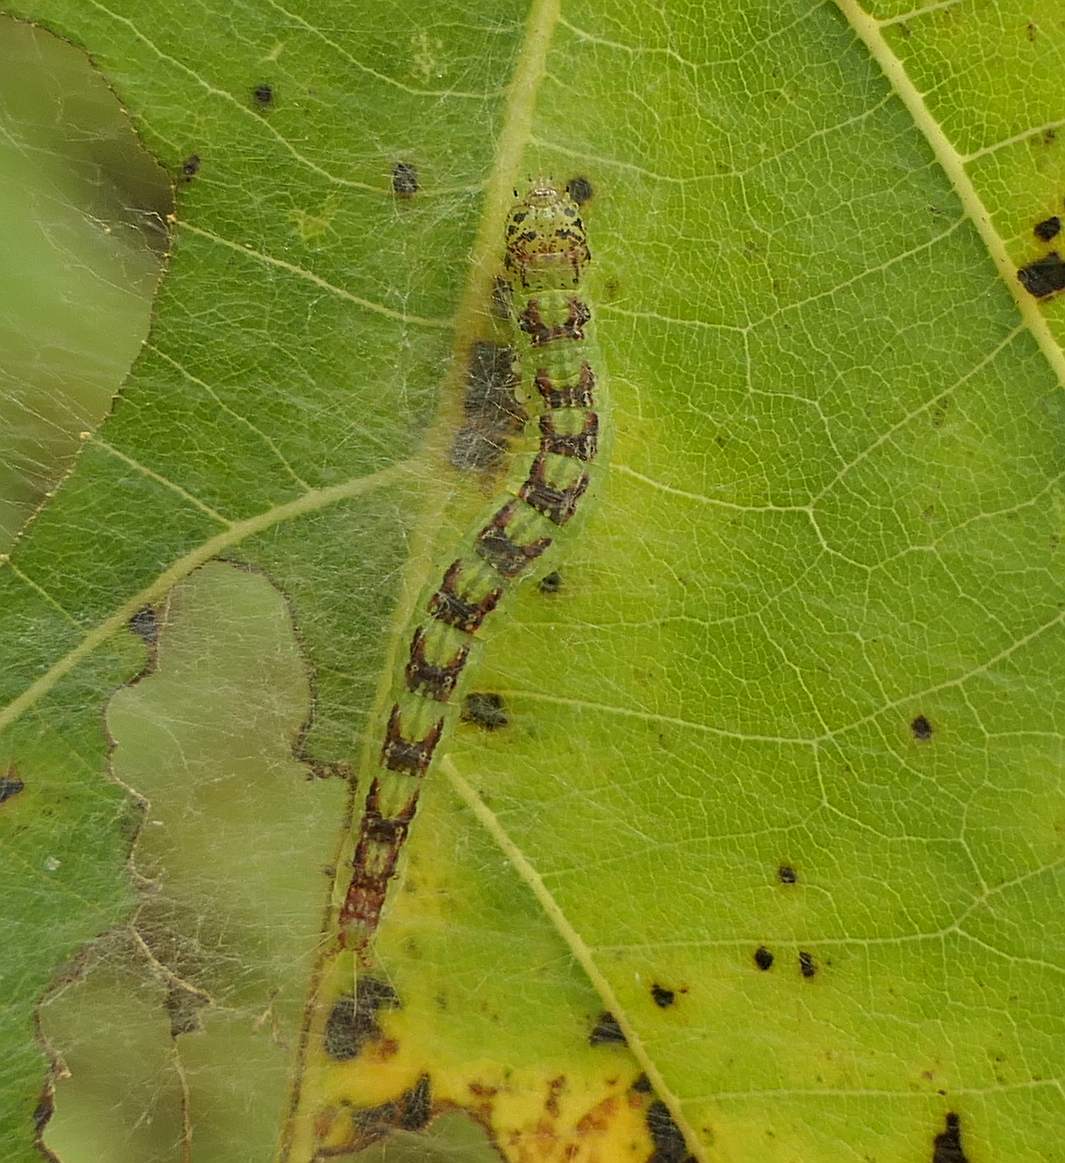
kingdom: Animalia
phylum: Arthropoda
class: Insecta
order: Lepidoptera
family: Pyralidae
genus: Oreana
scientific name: Oreana unicolorella
